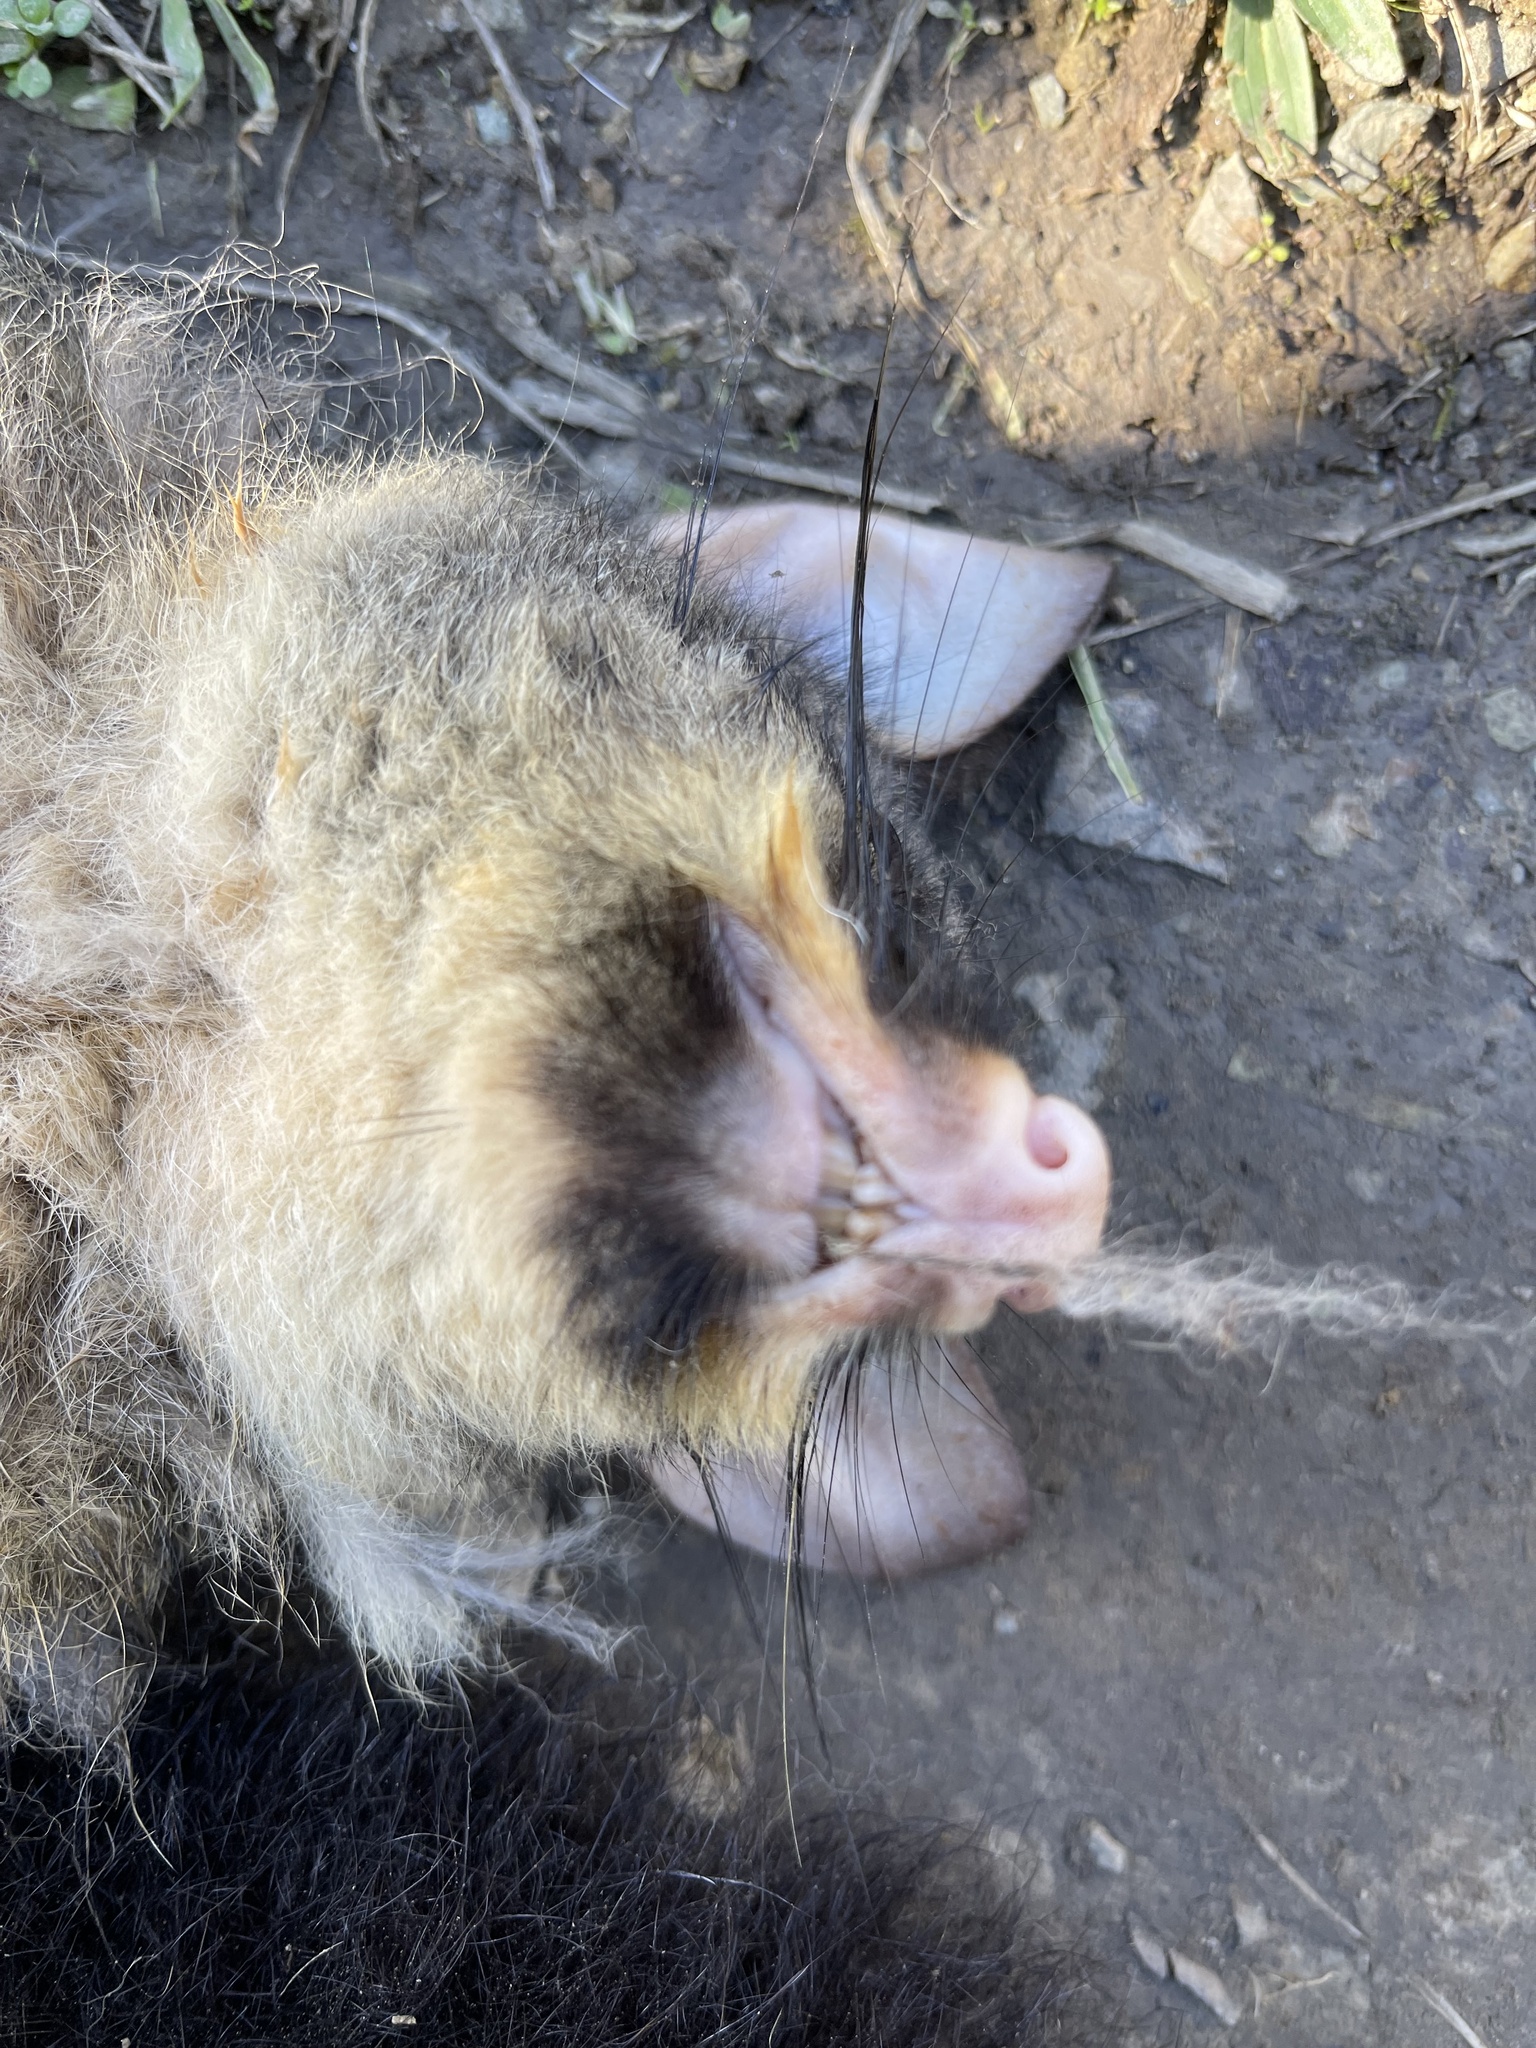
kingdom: Animalia
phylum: Chordata
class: Mammalia
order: Diprotodontia
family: Phalangeridae
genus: Trichosurus
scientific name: Trichosurus vulpecula
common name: Common brushtail
